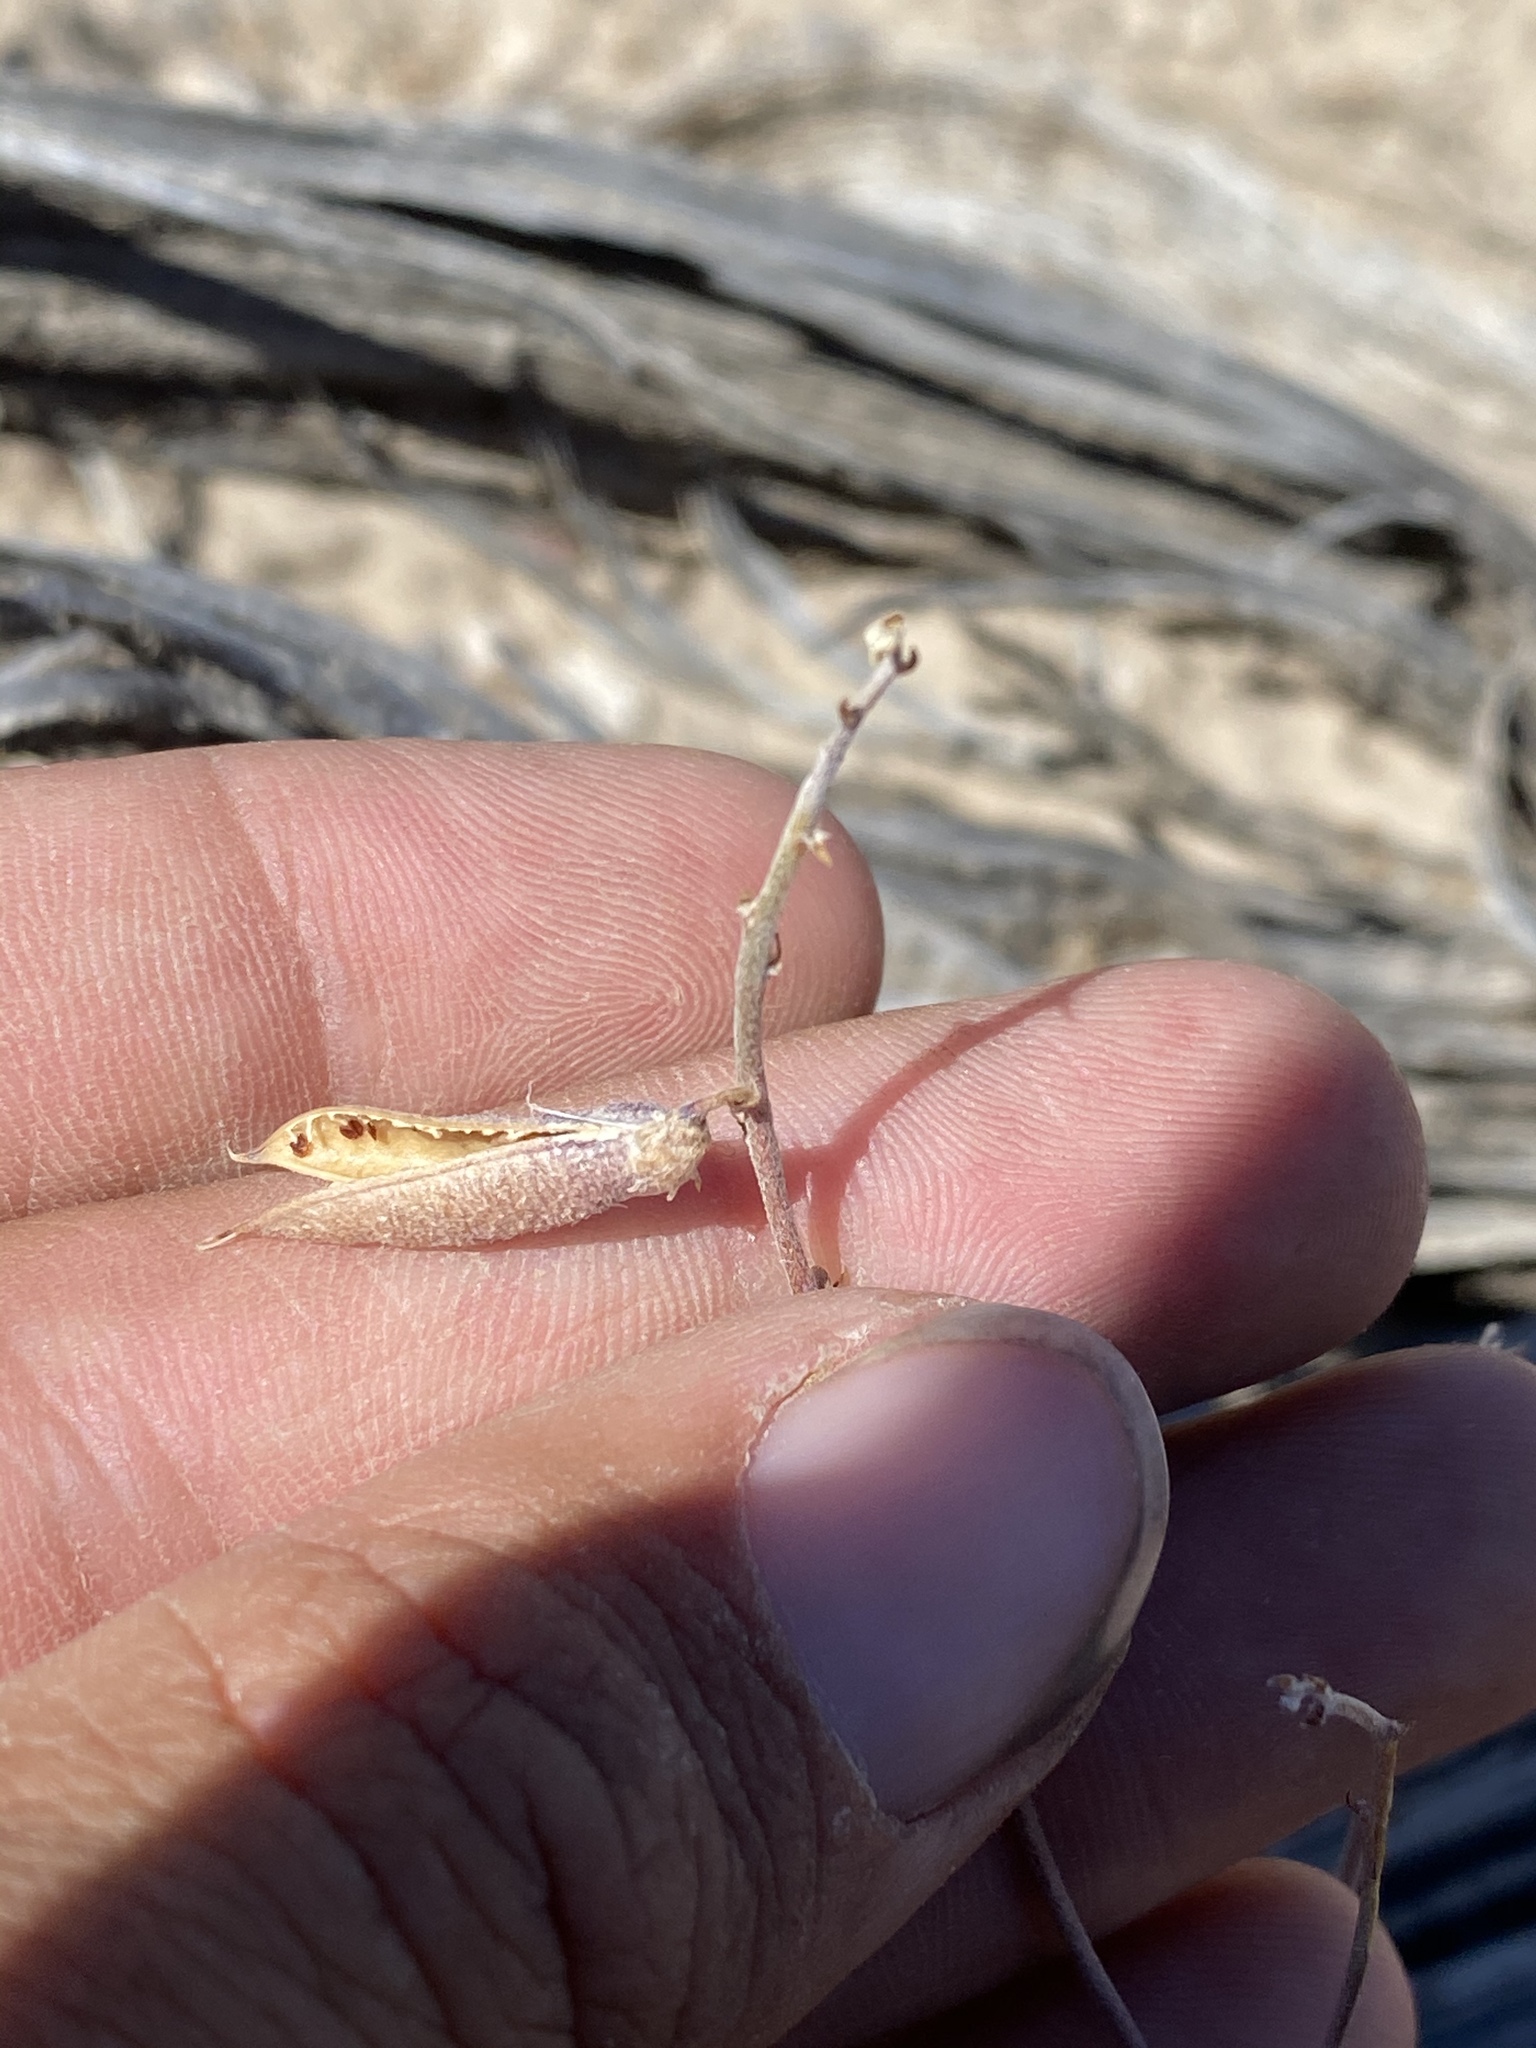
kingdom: Plantae
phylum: Tracheophyta
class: Magnoliopsida
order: Fabales
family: Fabaceae
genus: Astragalus
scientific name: Astragalus atratus
